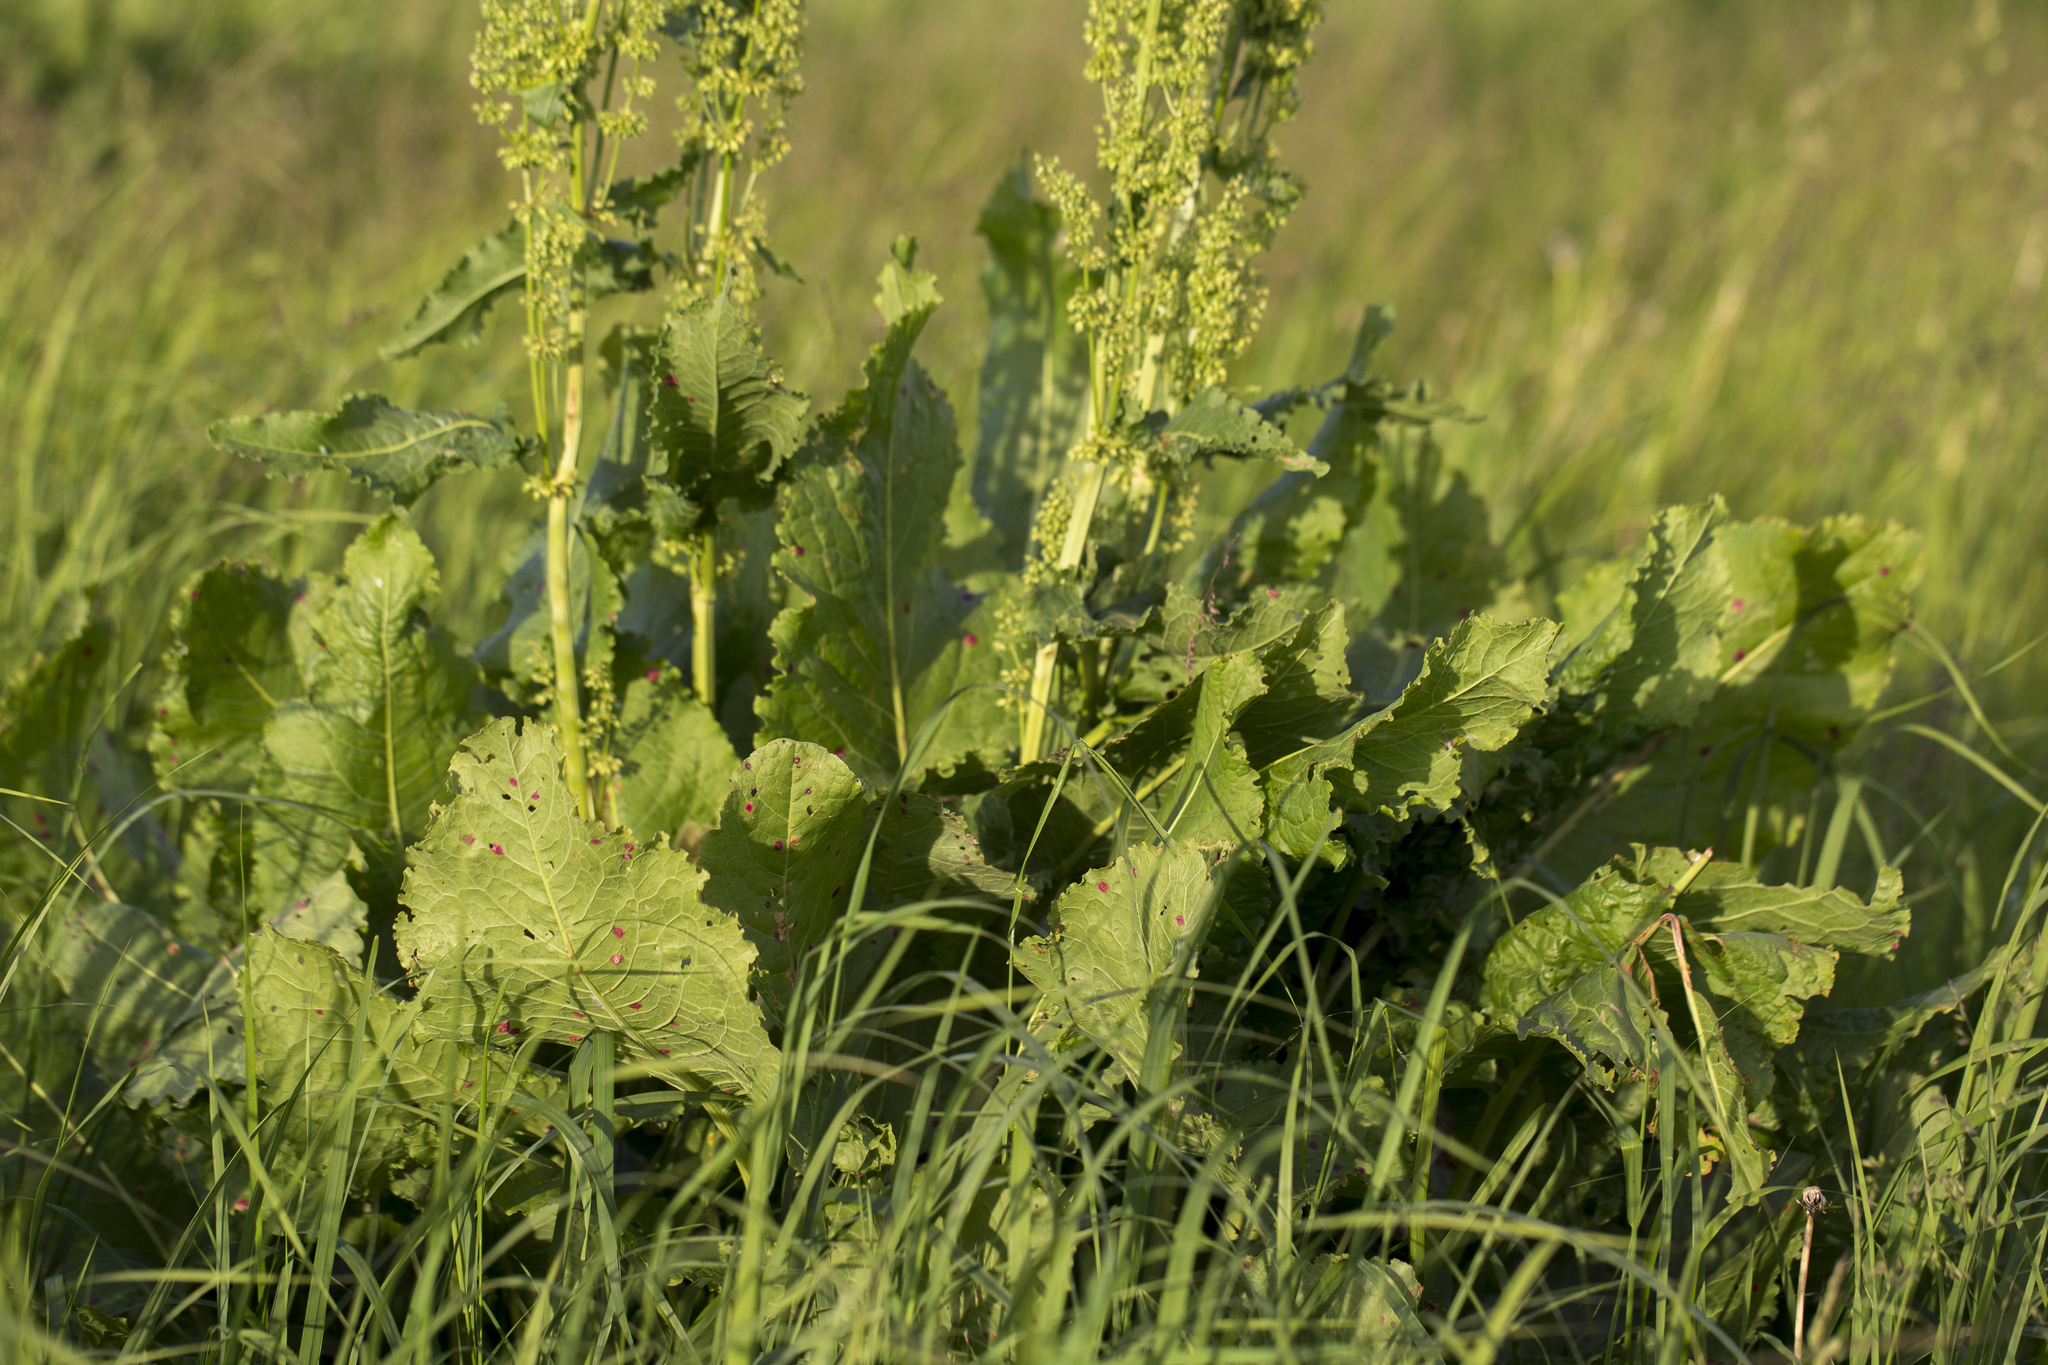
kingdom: Plantae
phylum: Tracheophyta
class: Magnoliopsida
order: Caryophyllales
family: Polygonaceae
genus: Rumex
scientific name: Rumex confertus
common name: Russian dock
